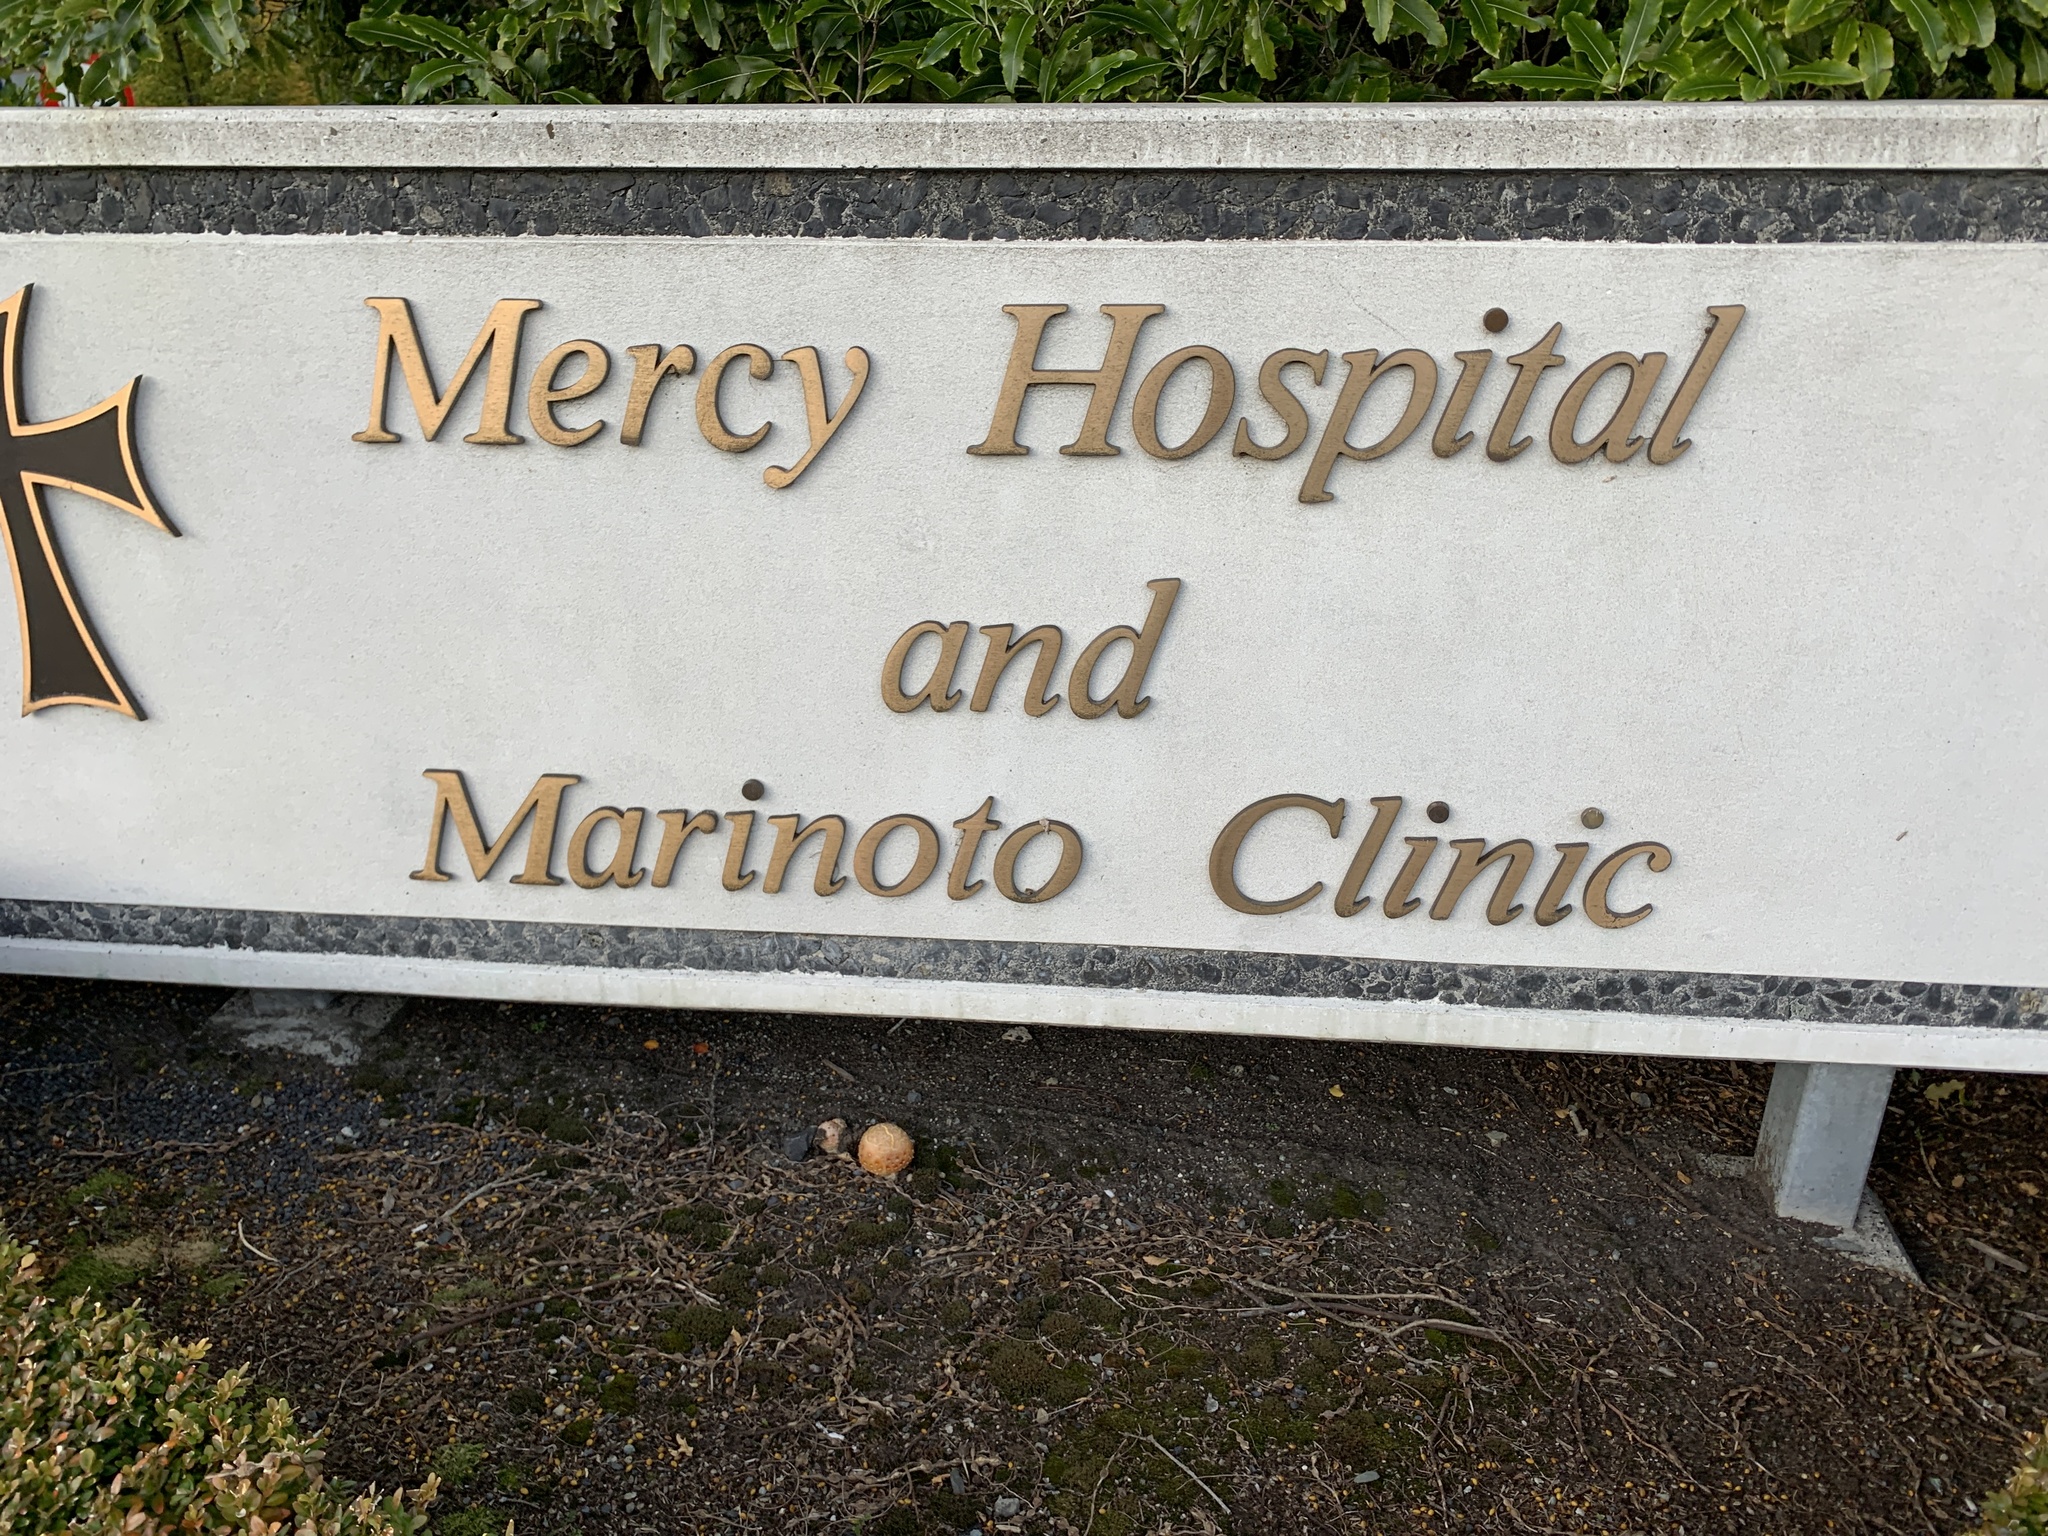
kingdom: Fungi
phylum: Basidiomycota
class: Agaricomycetes
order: Agaricales
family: Amanitaceae
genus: Amanita
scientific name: Amanita muscaria
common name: Fly agaric
